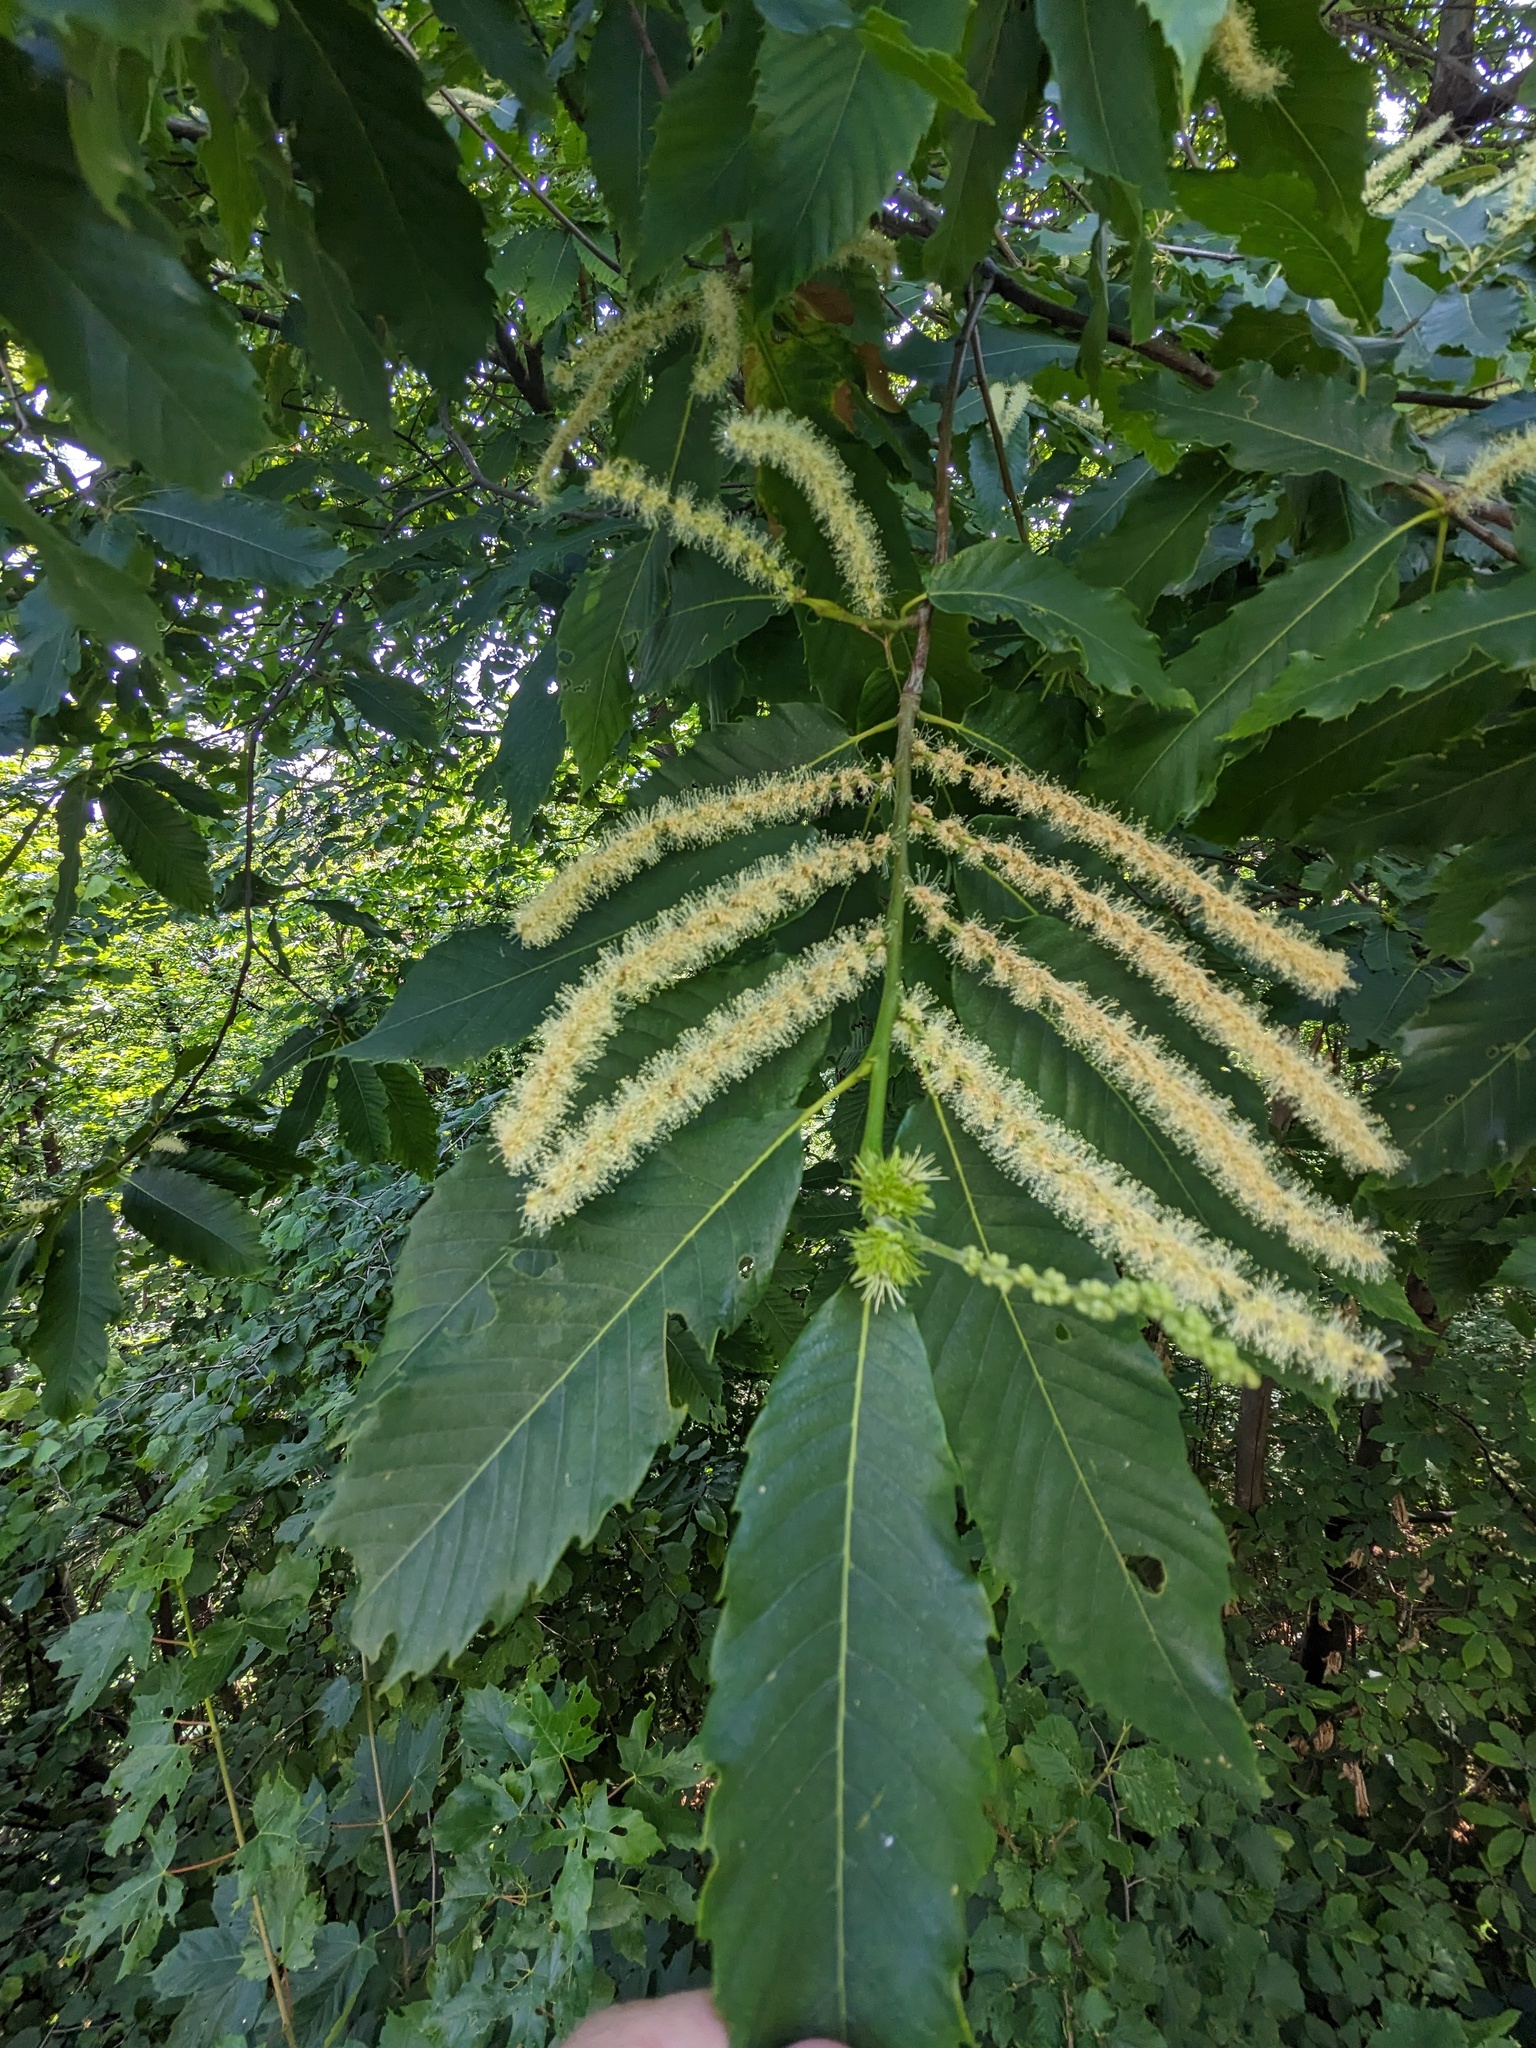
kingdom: Plantae
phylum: Tracheophyta
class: Magnoliopsida
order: Fagales
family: Fagaceae
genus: Castanea
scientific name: Castanea sativa
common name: Sweet chestnut
